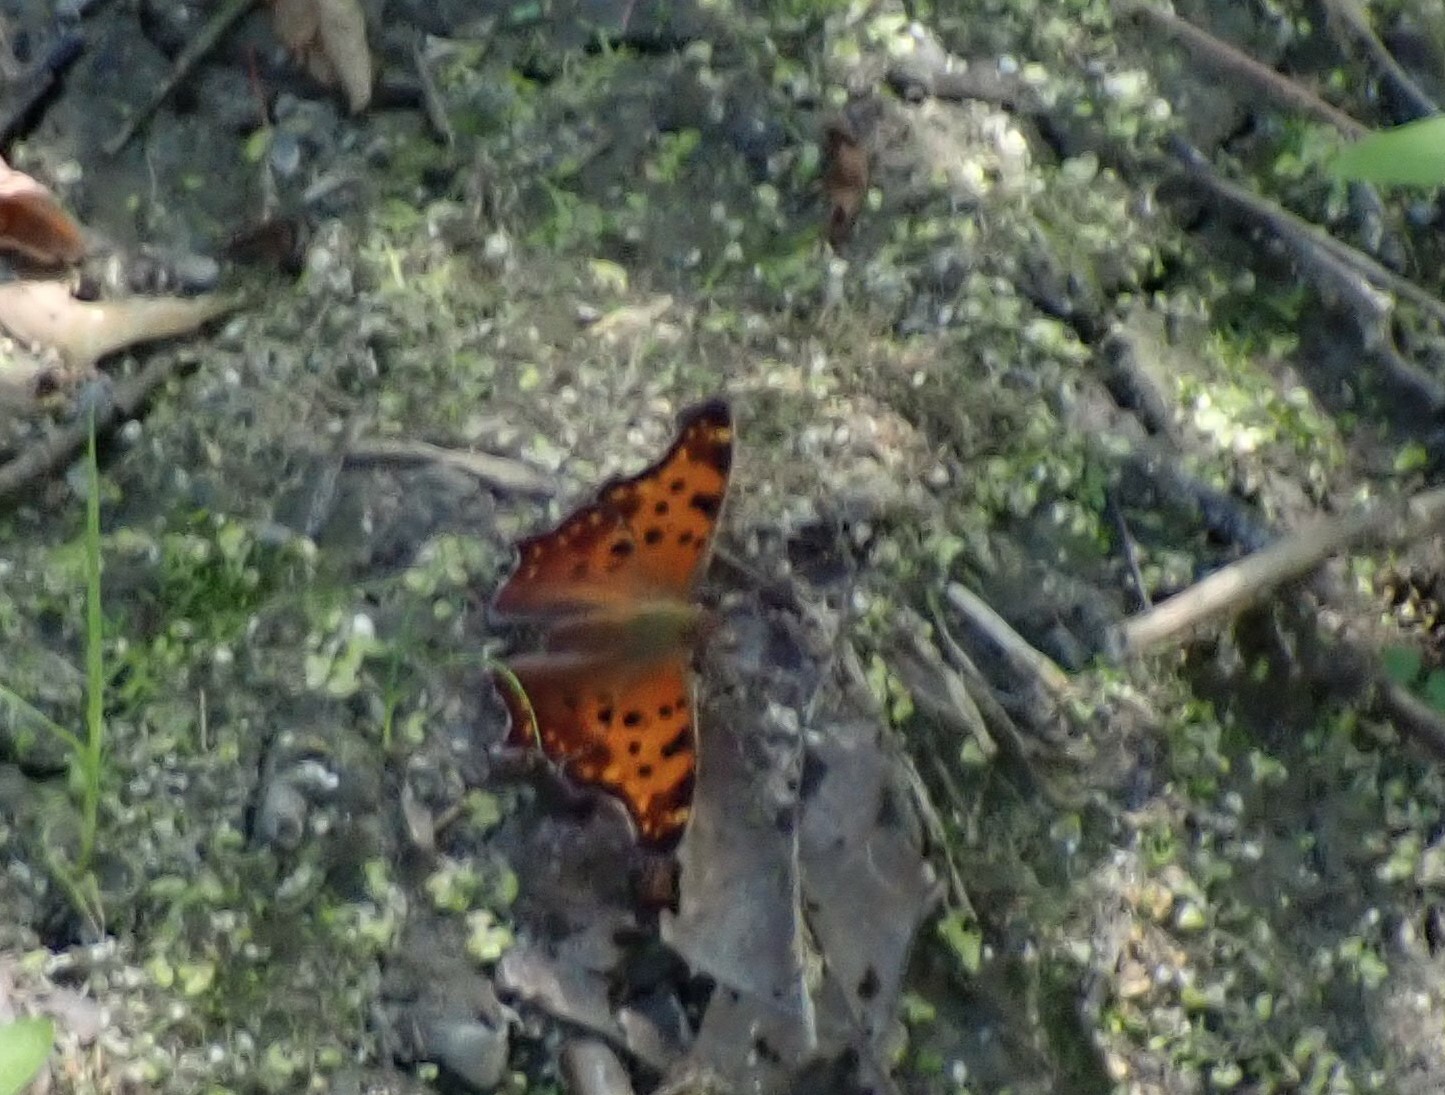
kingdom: Animalia
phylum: Arthropoda
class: Insecta
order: Lepidoptera
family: Nymphalidae
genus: Polygonia
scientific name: Polygonia comma
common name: Eastern comma
